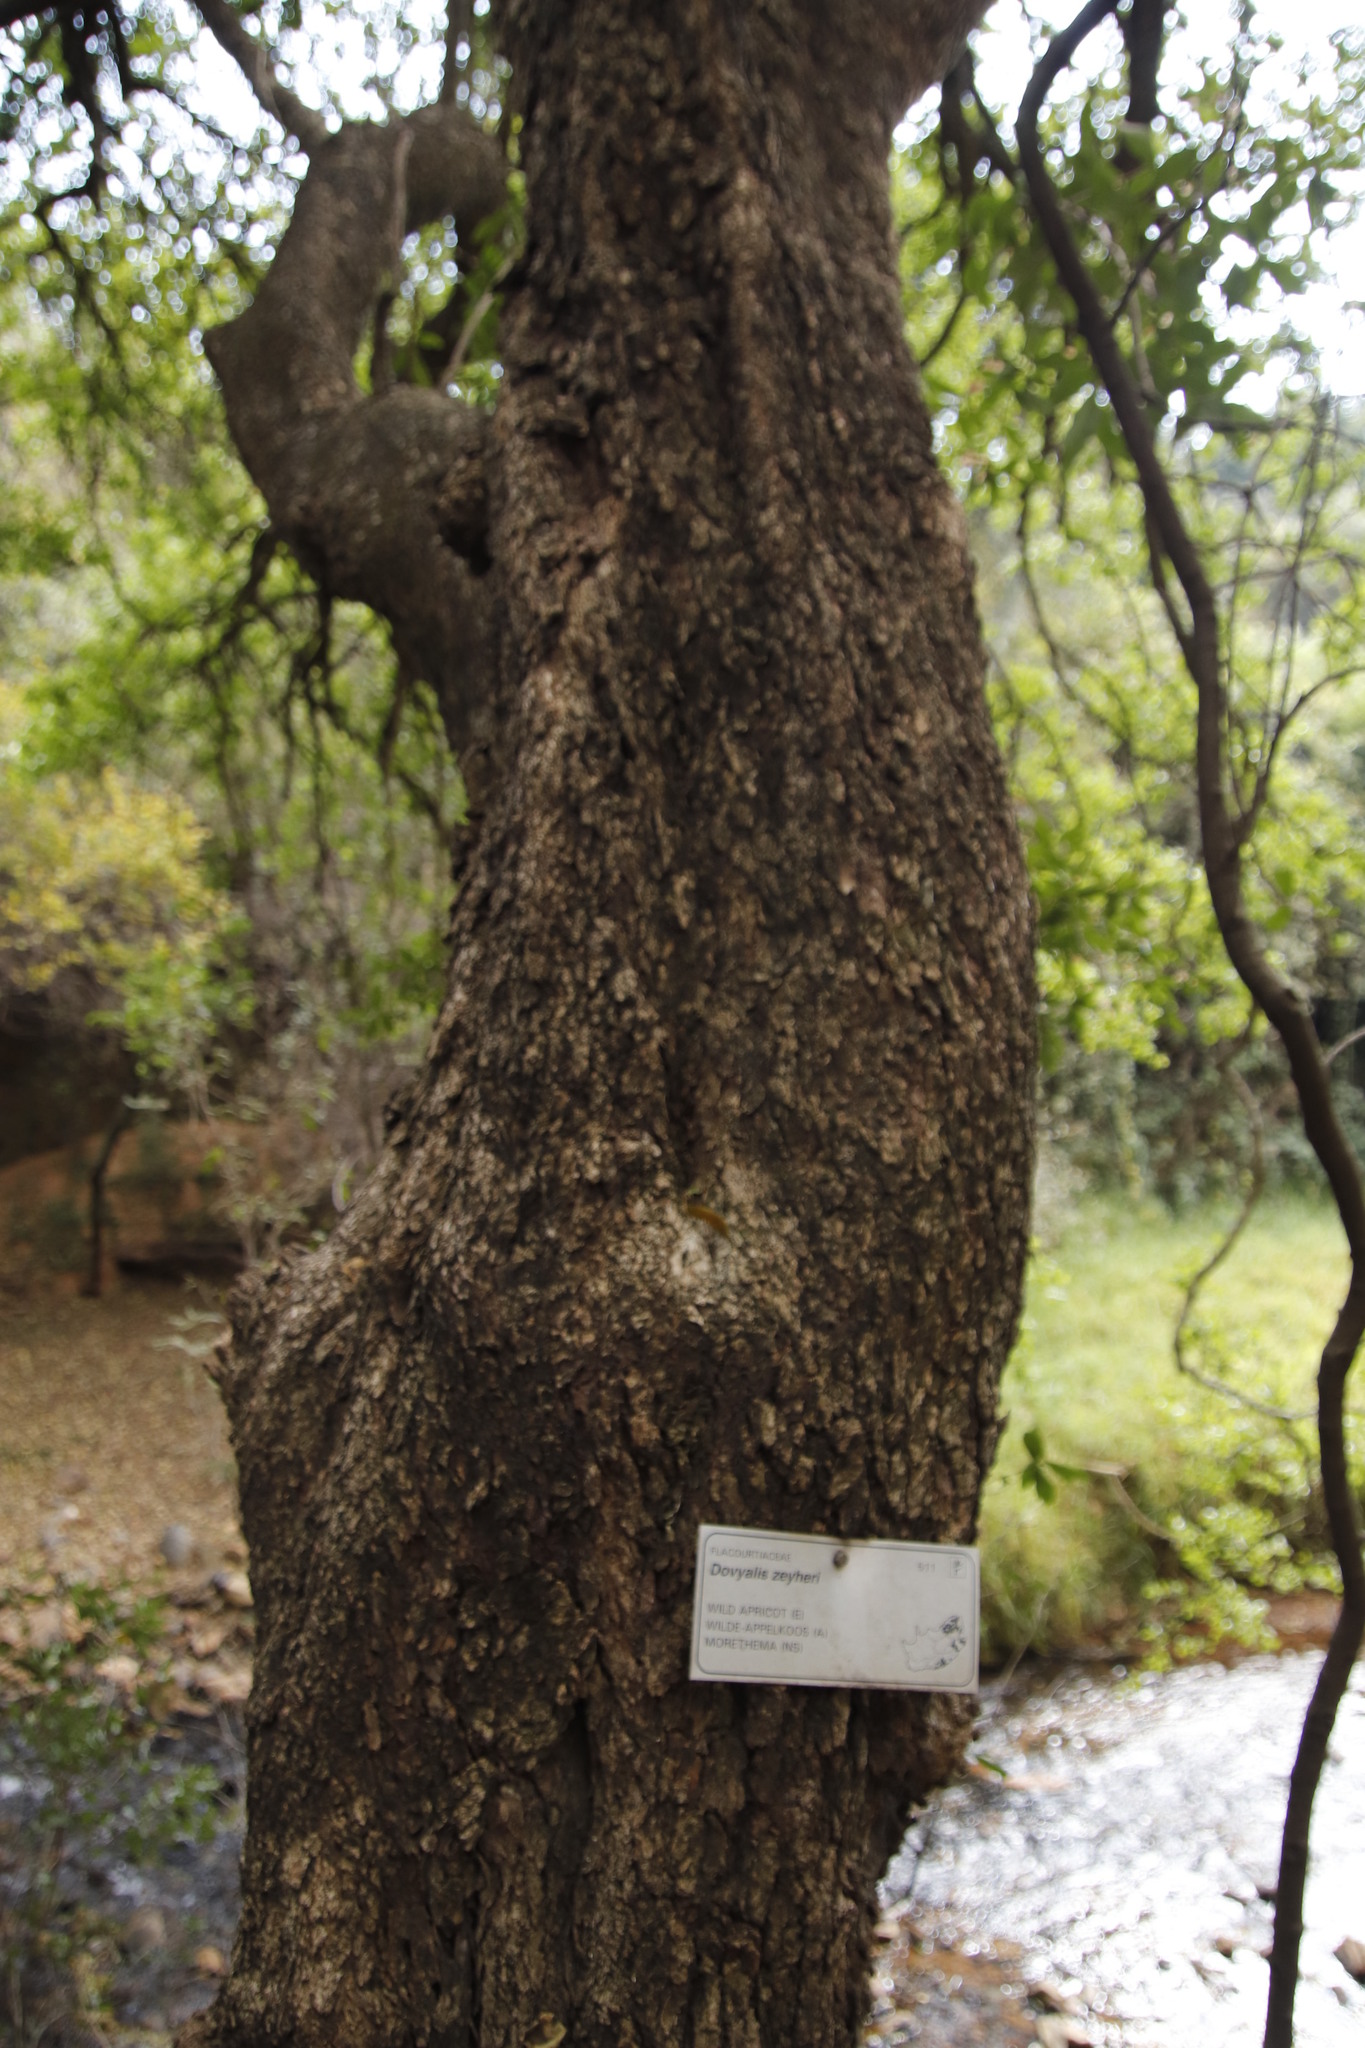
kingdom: Plantae
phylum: Tracheophyta
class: Magnoliopsida
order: Malpighiales
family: Salicaceae
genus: Dovyalis
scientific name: Dovyalis zeyheri
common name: Apricot sourberry
